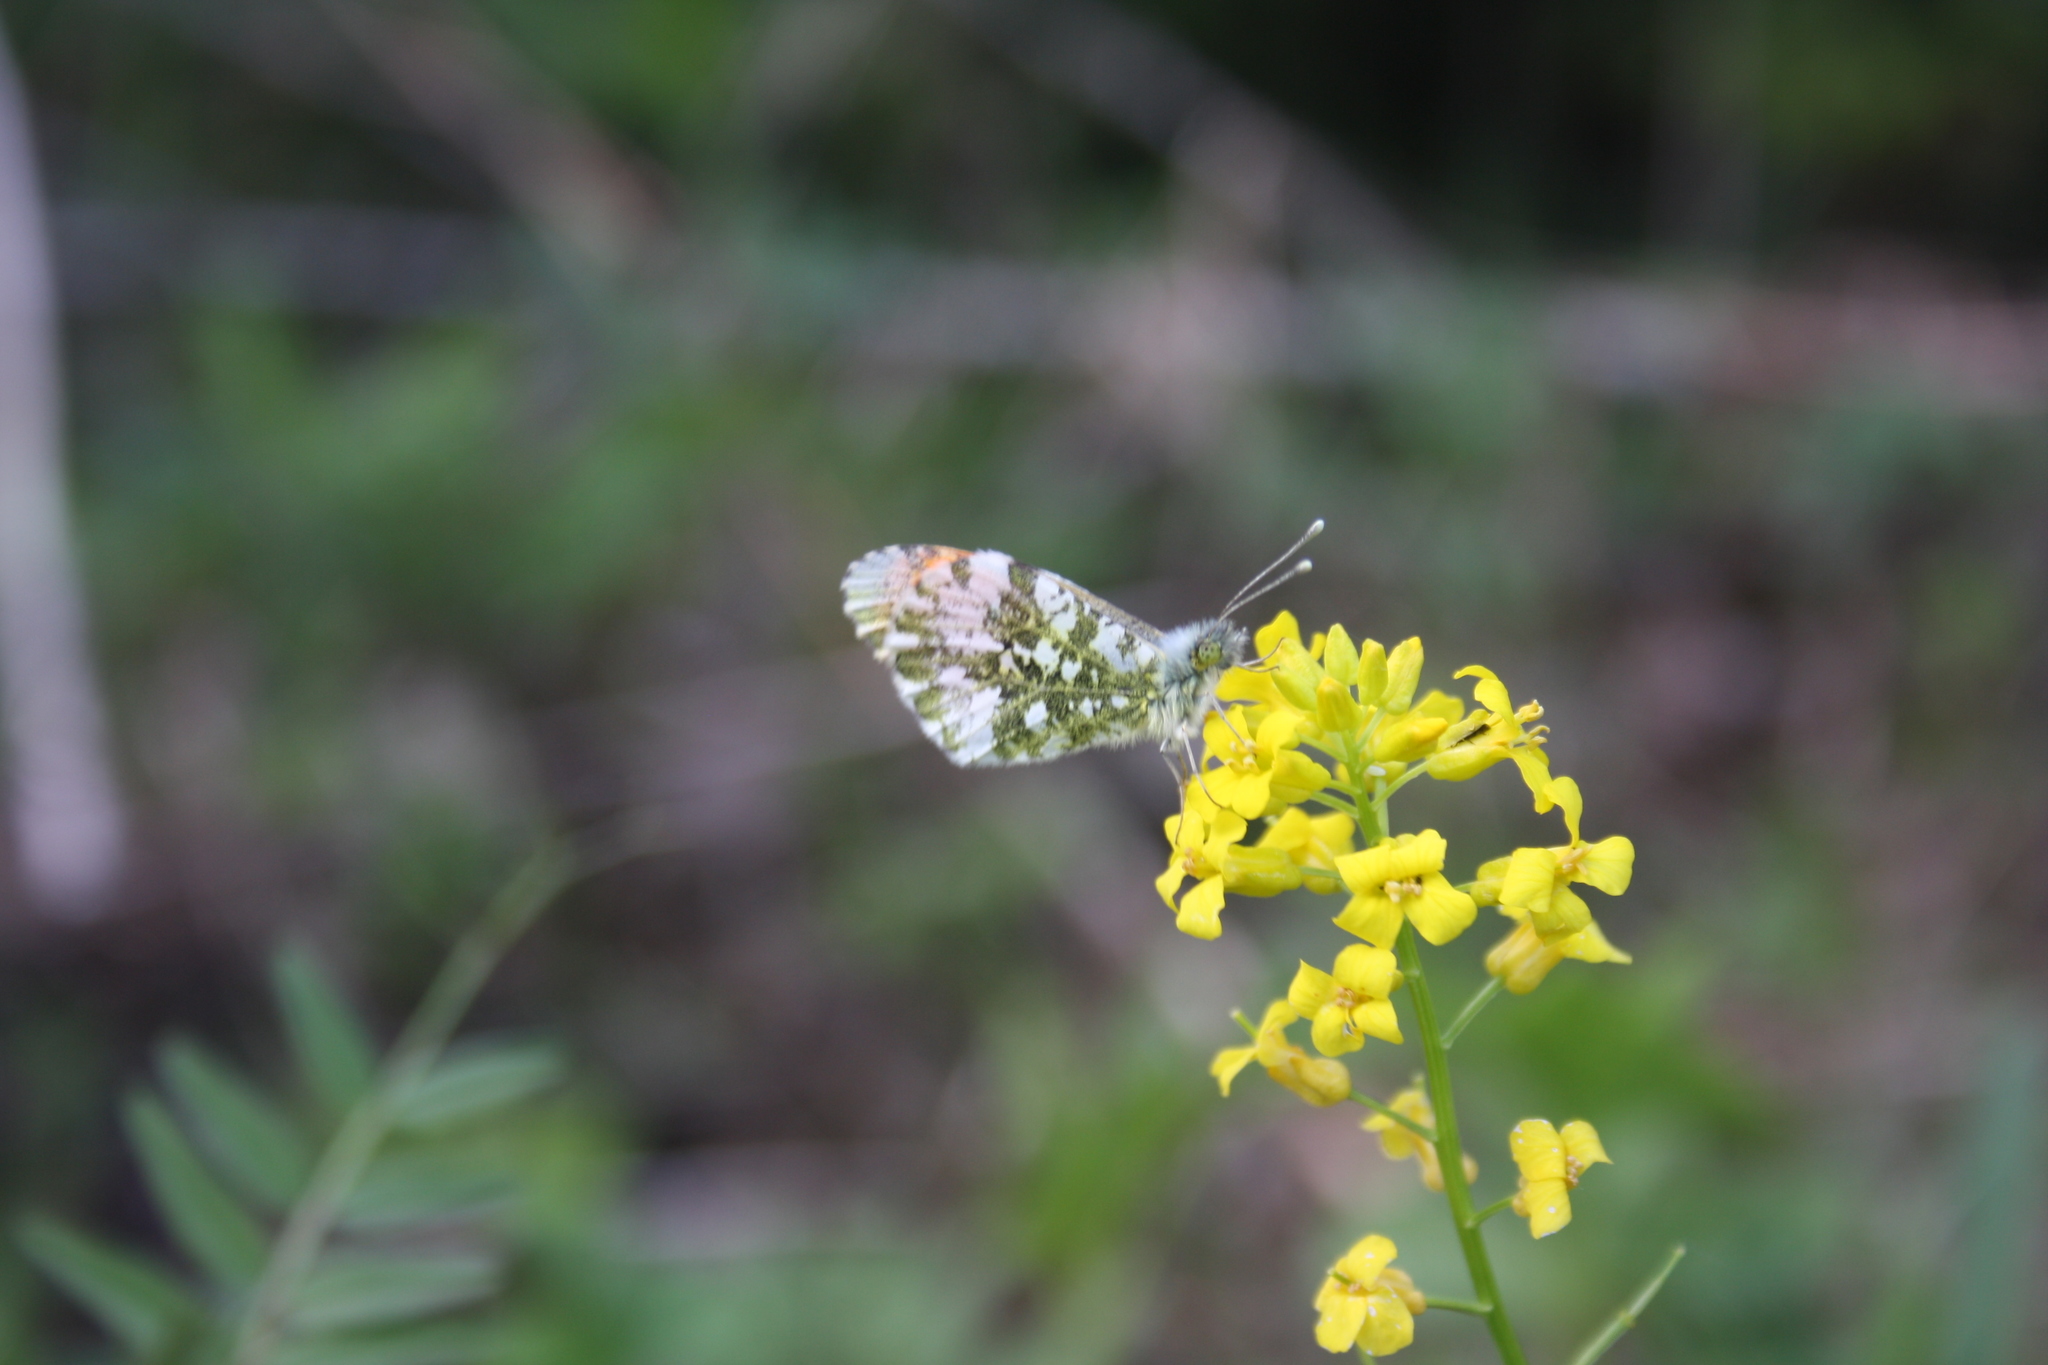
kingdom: Animalia
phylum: Arthropoda
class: Insecta
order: Lepidoptera
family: Pieridae
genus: Anthocharis
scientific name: Anthocharis cardamines
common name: Orange-tip
